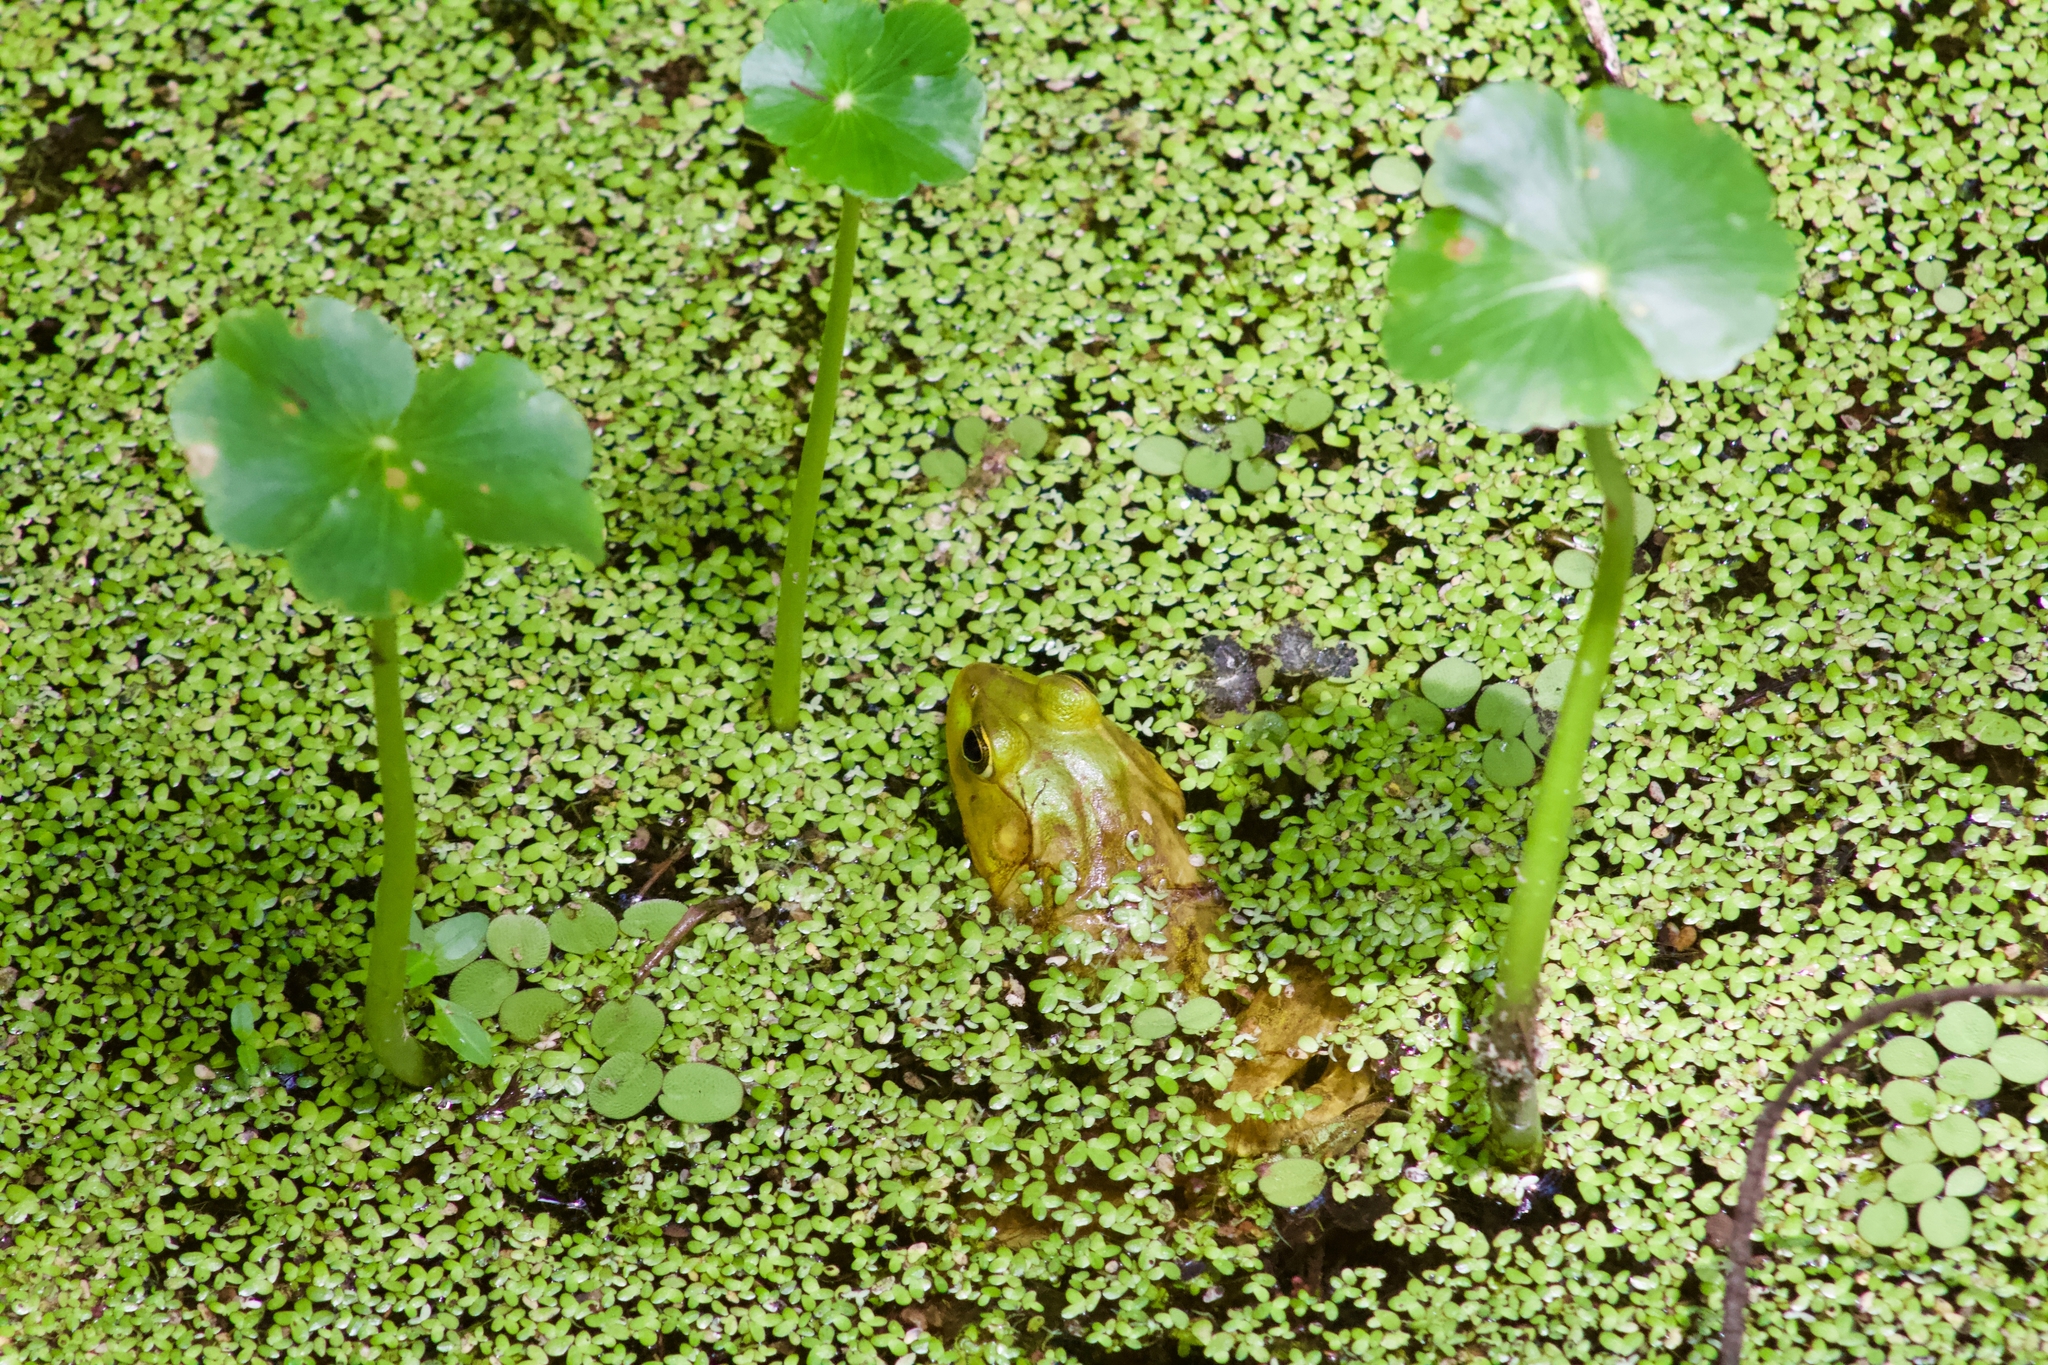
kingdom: Animalia
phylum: Chordata
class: Amphibia
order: Anura
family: Ranidae
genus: Lithobates
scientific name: Lithobates grylio
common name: Pig frog
